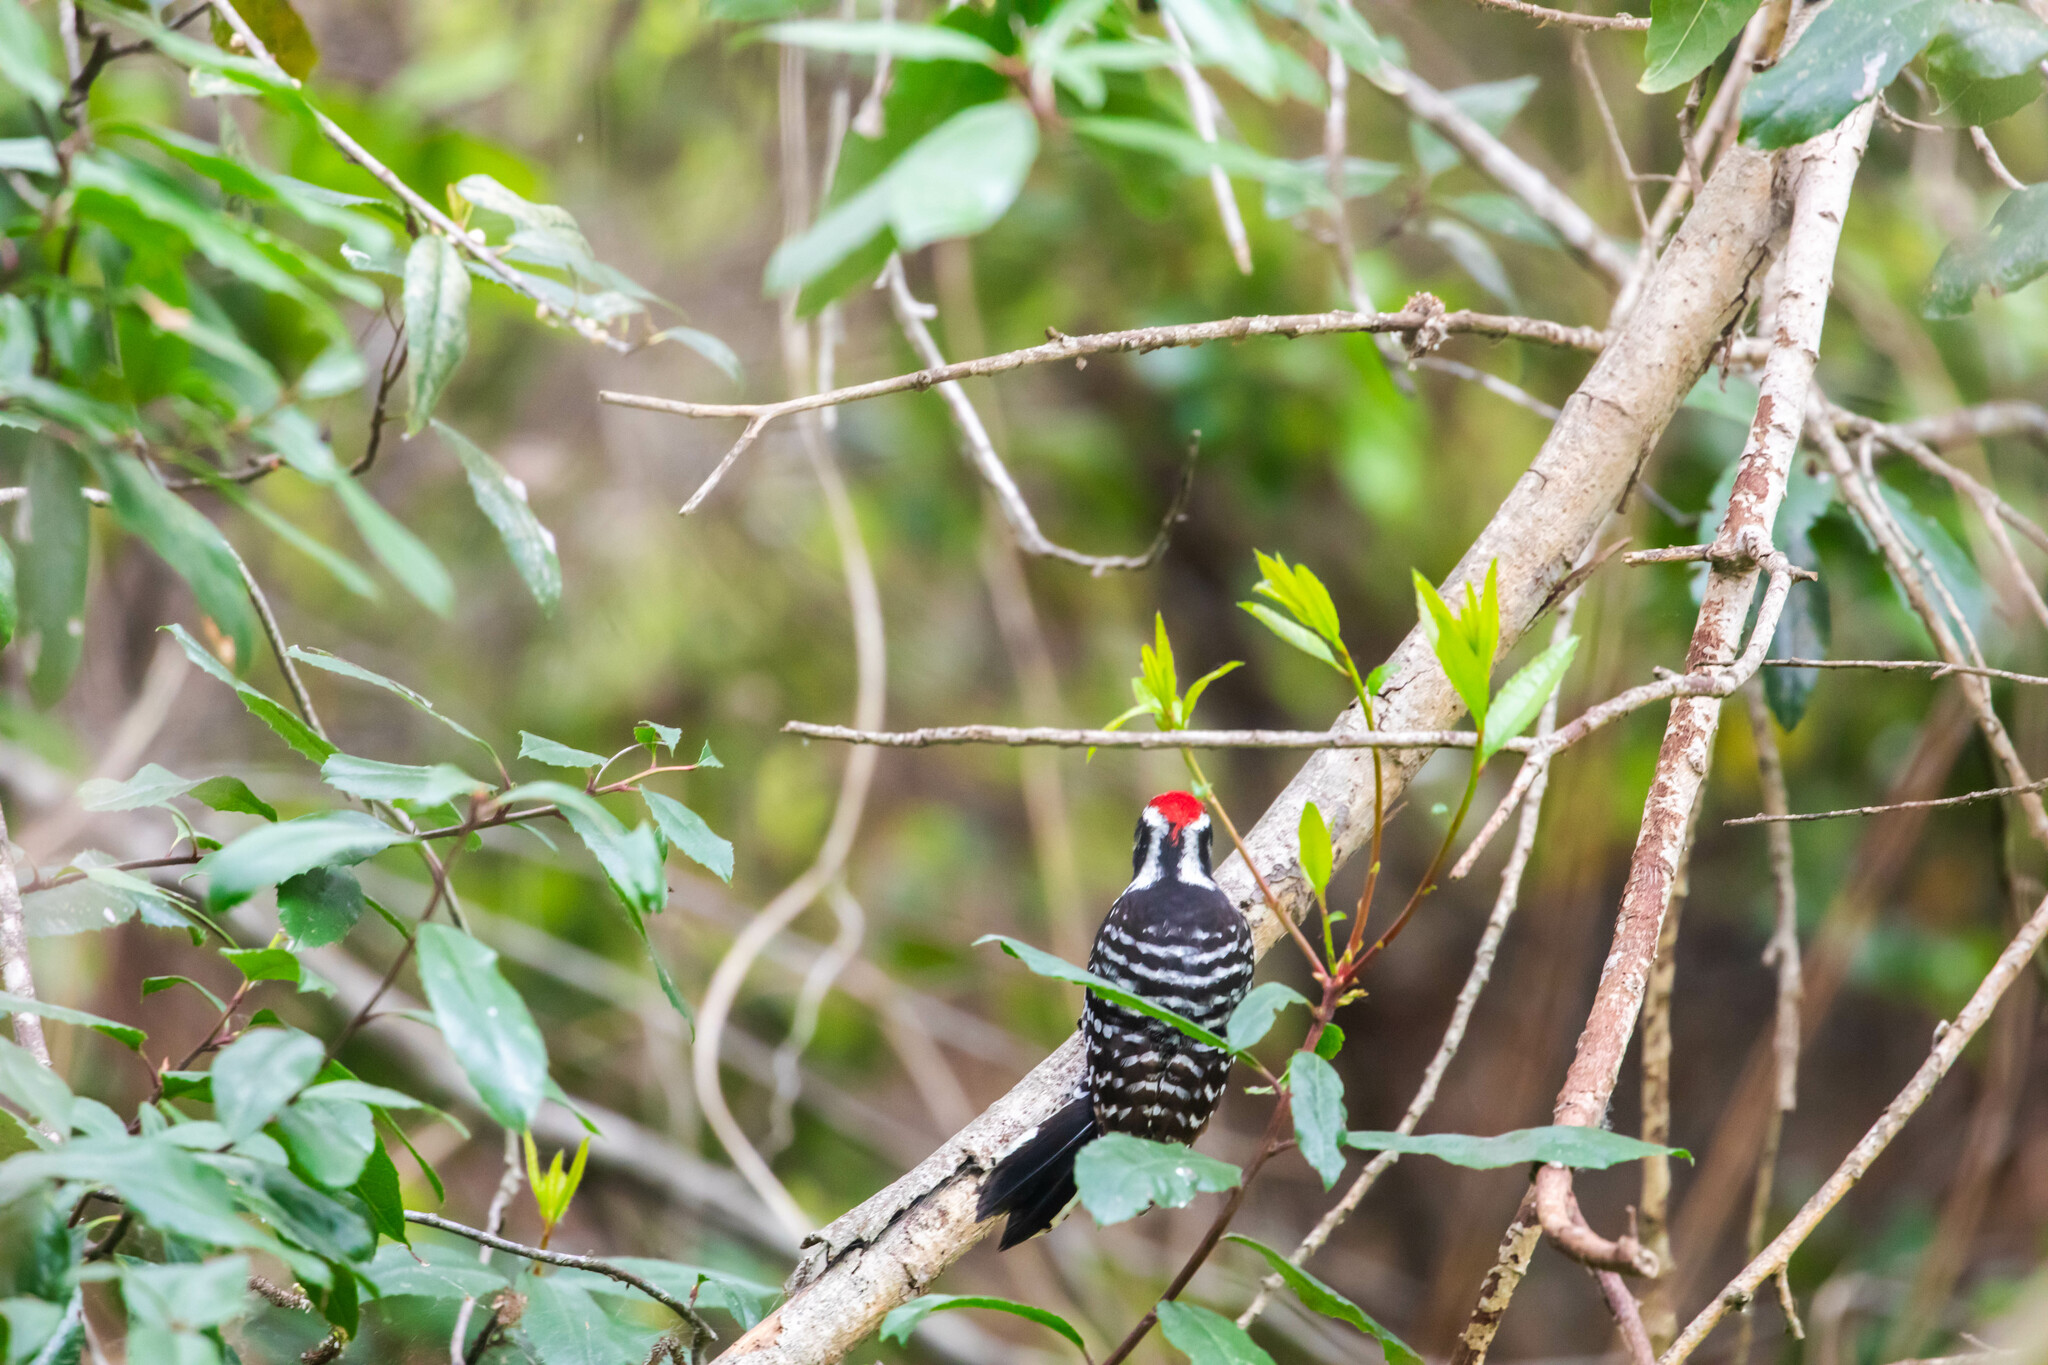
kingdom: Animalia
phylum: Chordata
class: Aves
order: Piciformes
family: Picidae
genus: Dryobates
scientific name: Dryobates nuttallii
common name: Nuttall's woodpecker
